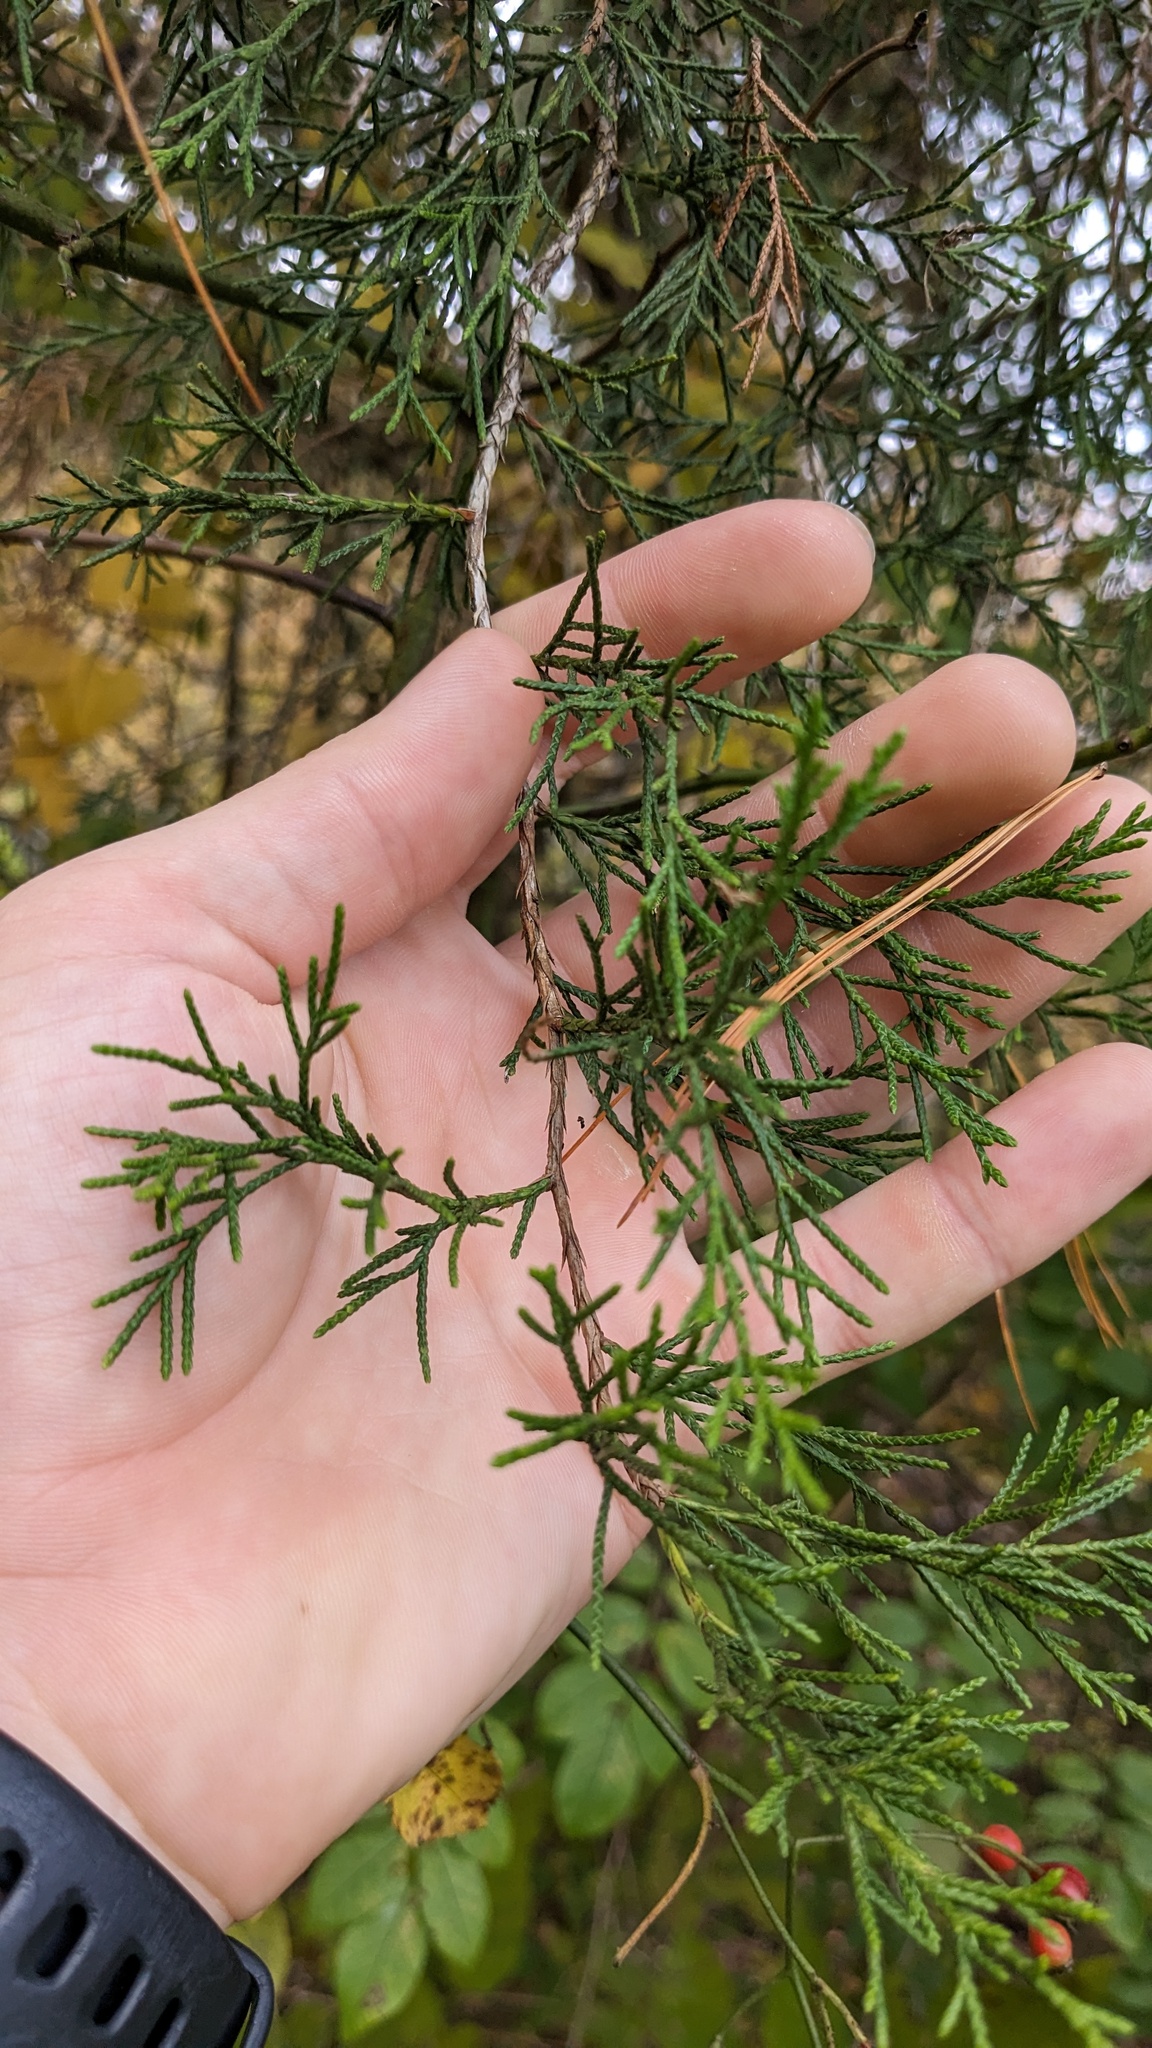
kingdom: Plantae
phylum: Tracheophyta
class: Pinopsida
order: Pinales
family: Cupressaceae
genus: Juniperus
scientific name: Juniperus virginiana
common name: Red juniper
